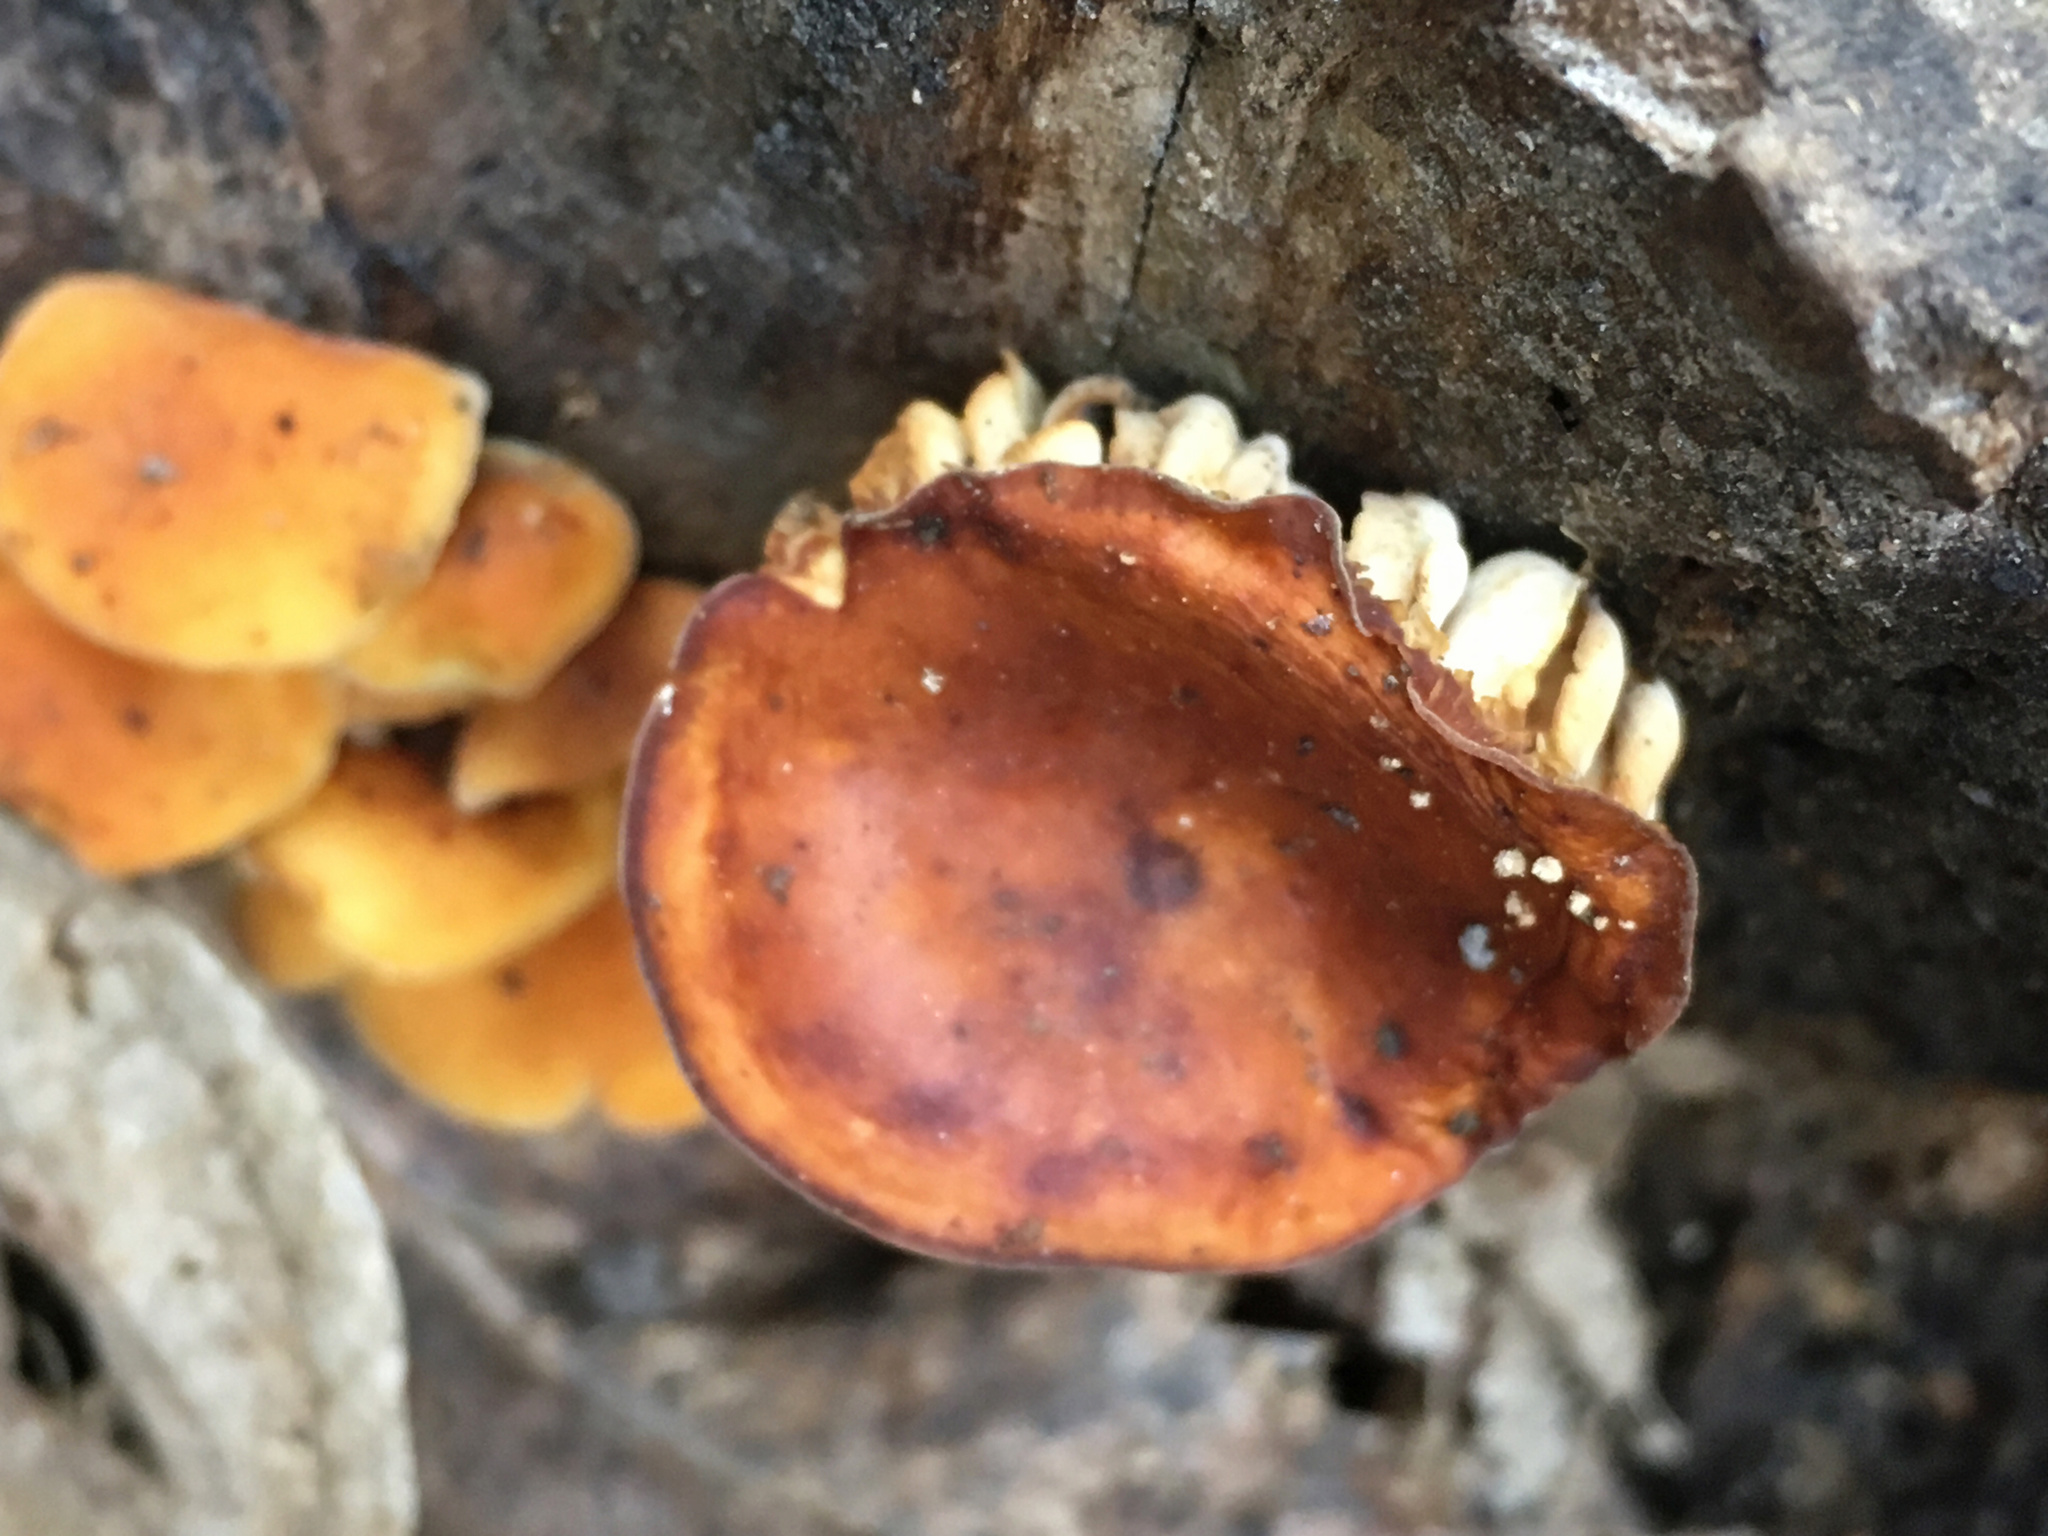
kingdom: Fungi
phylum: Basidiomycota
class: Agaricomycetes
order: Agaricales
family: Physalacriaceae
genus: Flammulina
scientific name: Flammulina velutipes
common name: Velvet shank
